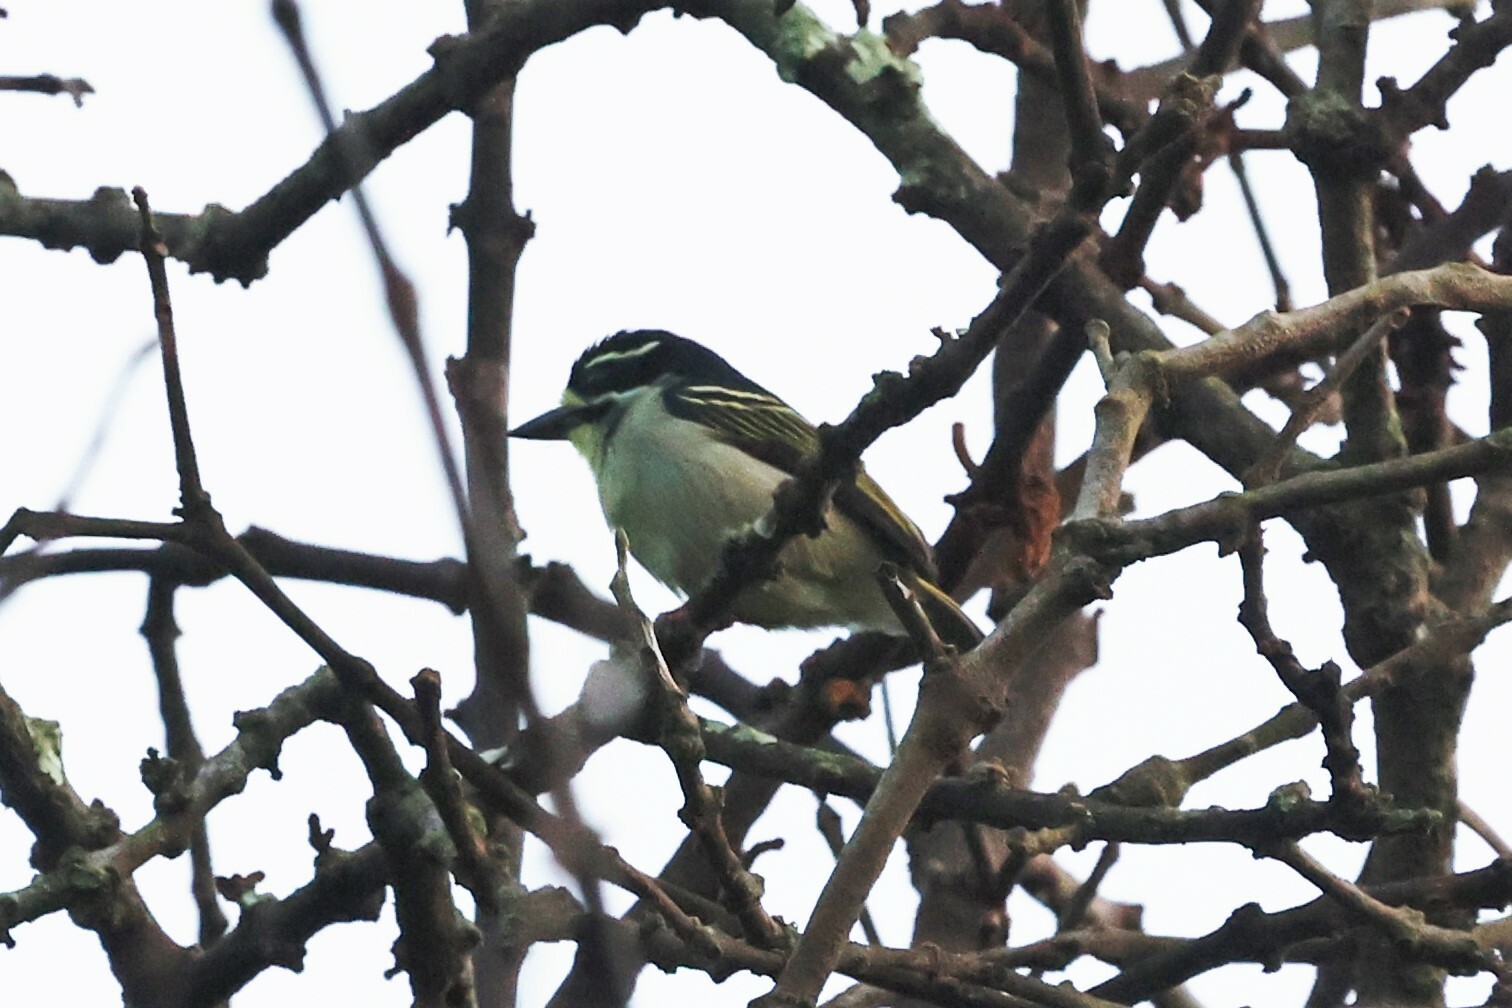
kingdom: Animalia
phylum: Chordata
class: Aves
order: Piciformes
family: Lybiidae
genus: Pogoniulus
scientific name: Pogoniulus subsulphureus
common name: Yellow-throated tinkerbird
